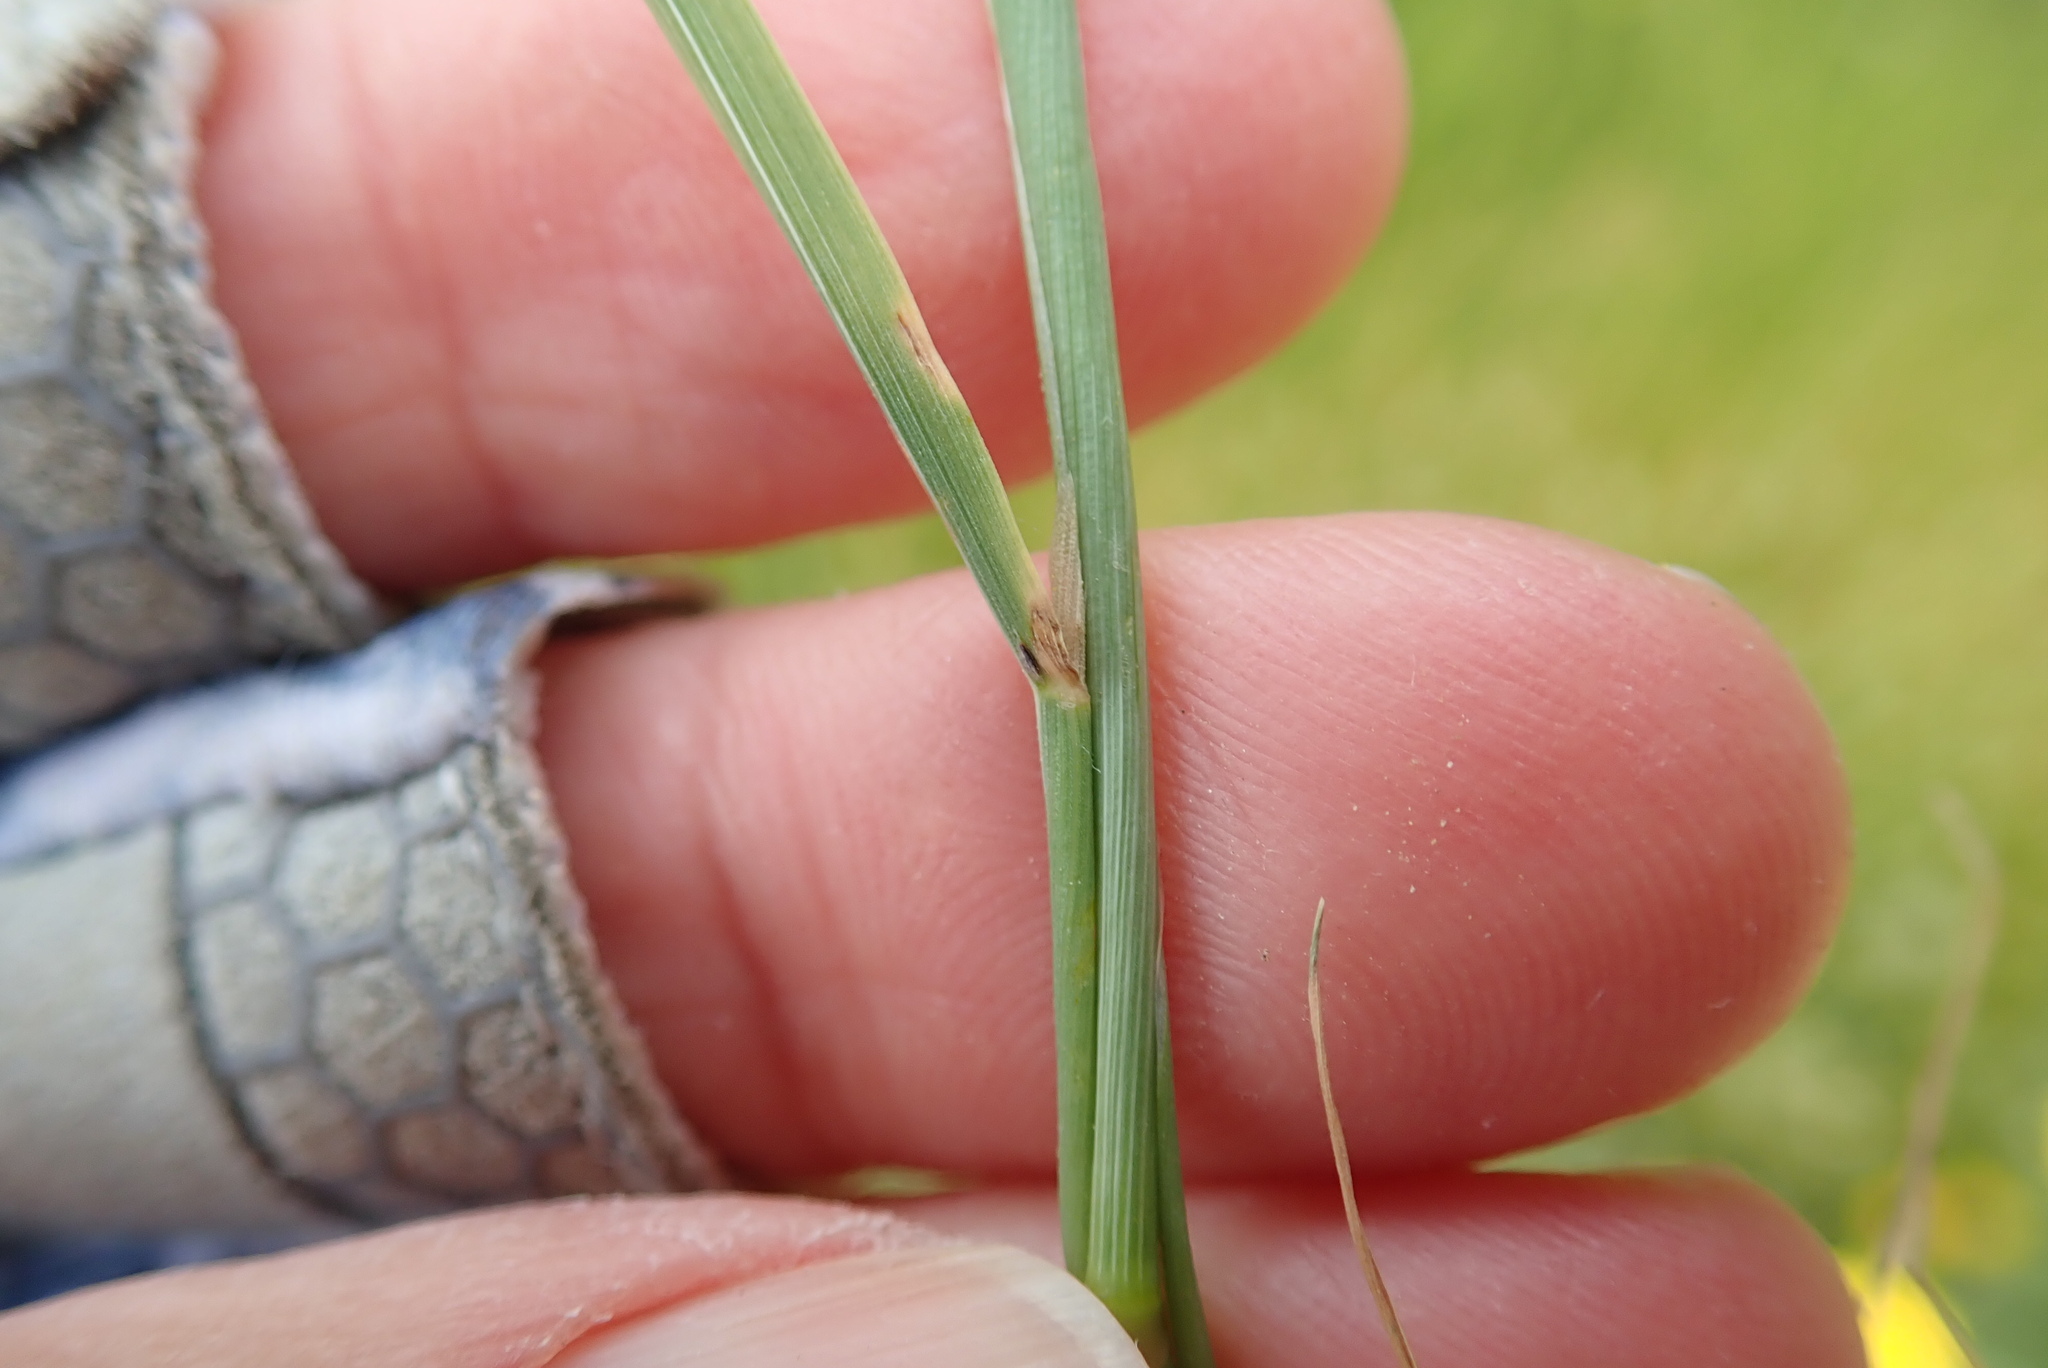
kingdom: Plantae
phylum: Tracheophyta
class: Liliopsida
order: Poales
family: Poaceae
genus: Polypogon
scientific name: Polypogon monspeliensis
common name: Annual rabbitsfoot grass
